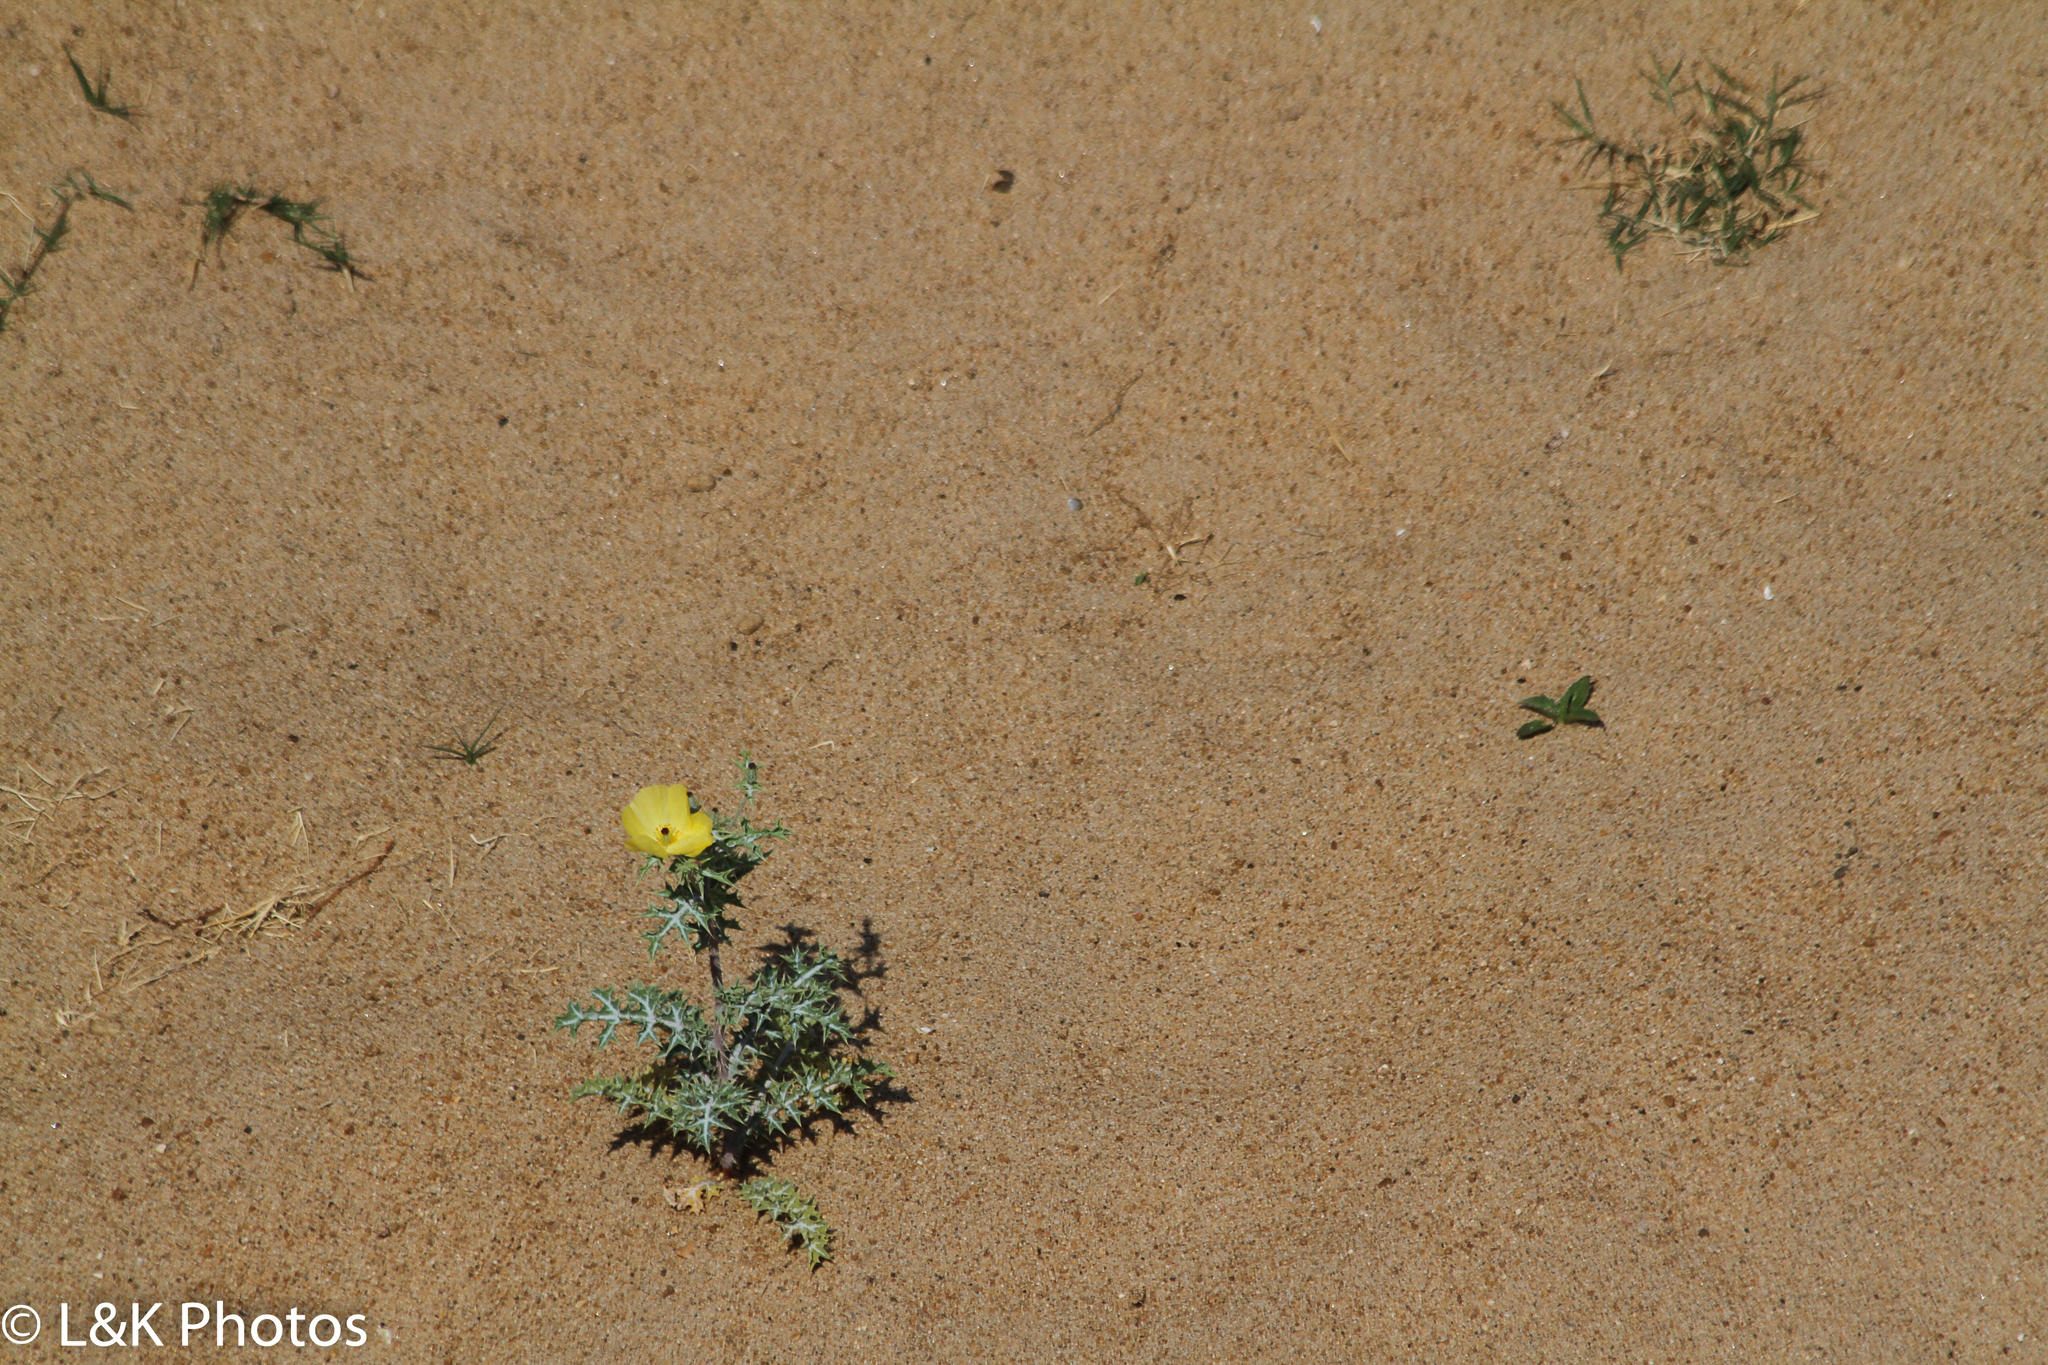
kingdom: Plantae
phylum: Tracheophyta
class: Magnoliopsida
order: Ranunculales
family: Papaveraceae
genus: Argemone
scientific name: Argemone mexicana
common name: Mexican poppy
